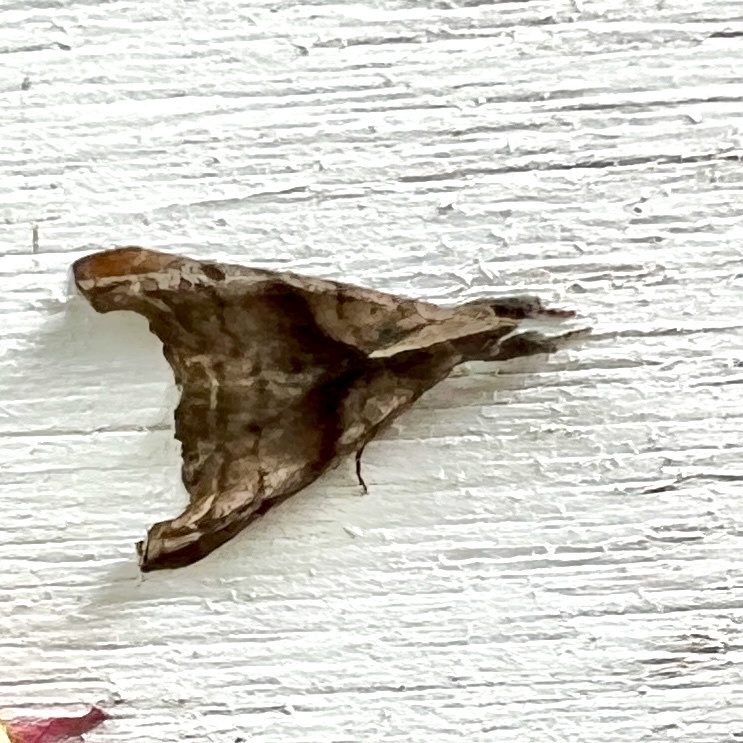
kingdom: Animalia
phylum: Arthropoda
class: Insecta
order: Lepidoptera
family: Erebidae
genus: Palthis
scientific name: Palthis angulalis
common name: Dark-spotted palthis moth
